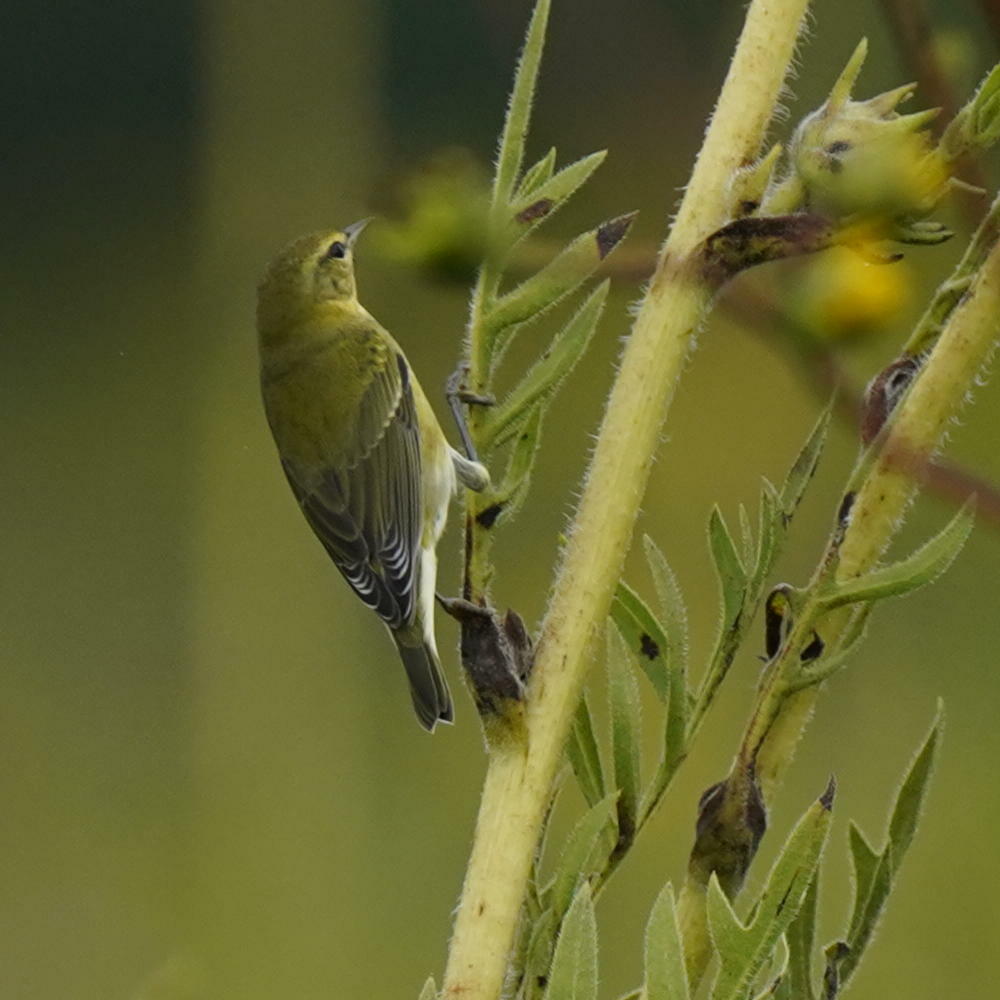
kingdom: Animalia
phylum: Chordata
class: Aves
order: Passeriformes
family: Parulidae
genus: Leiothlypis
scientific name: Leiothlypis peregrina
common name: Tennessee warbler
